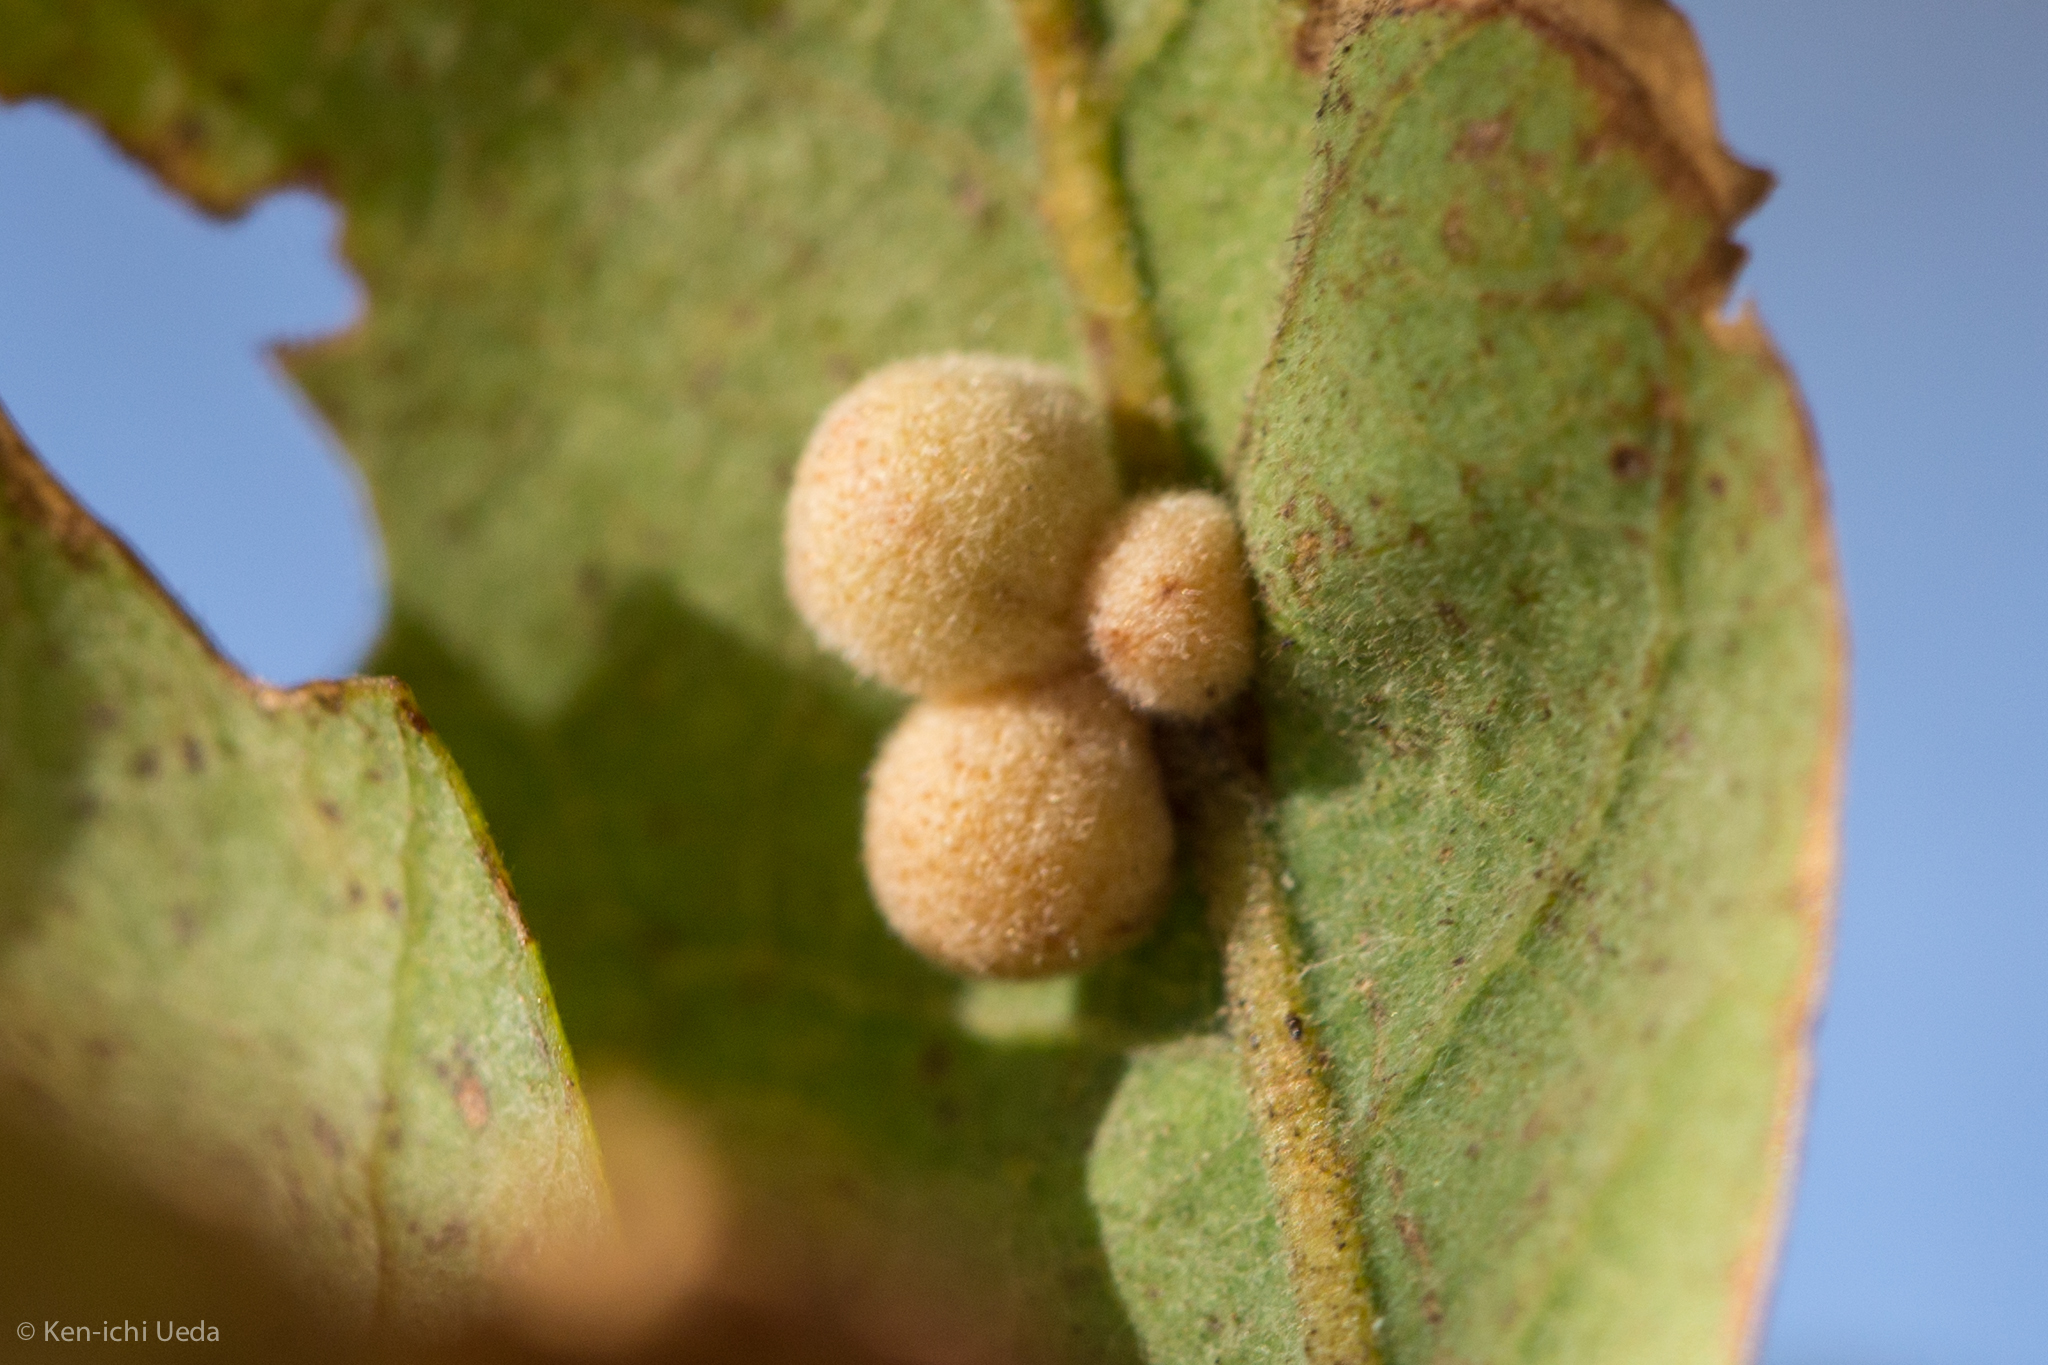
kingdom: Animalia
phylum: Arthropoda
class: Insecta
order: Hymenoptera
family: Cynipidae
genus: Andricus
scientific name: Andricus
